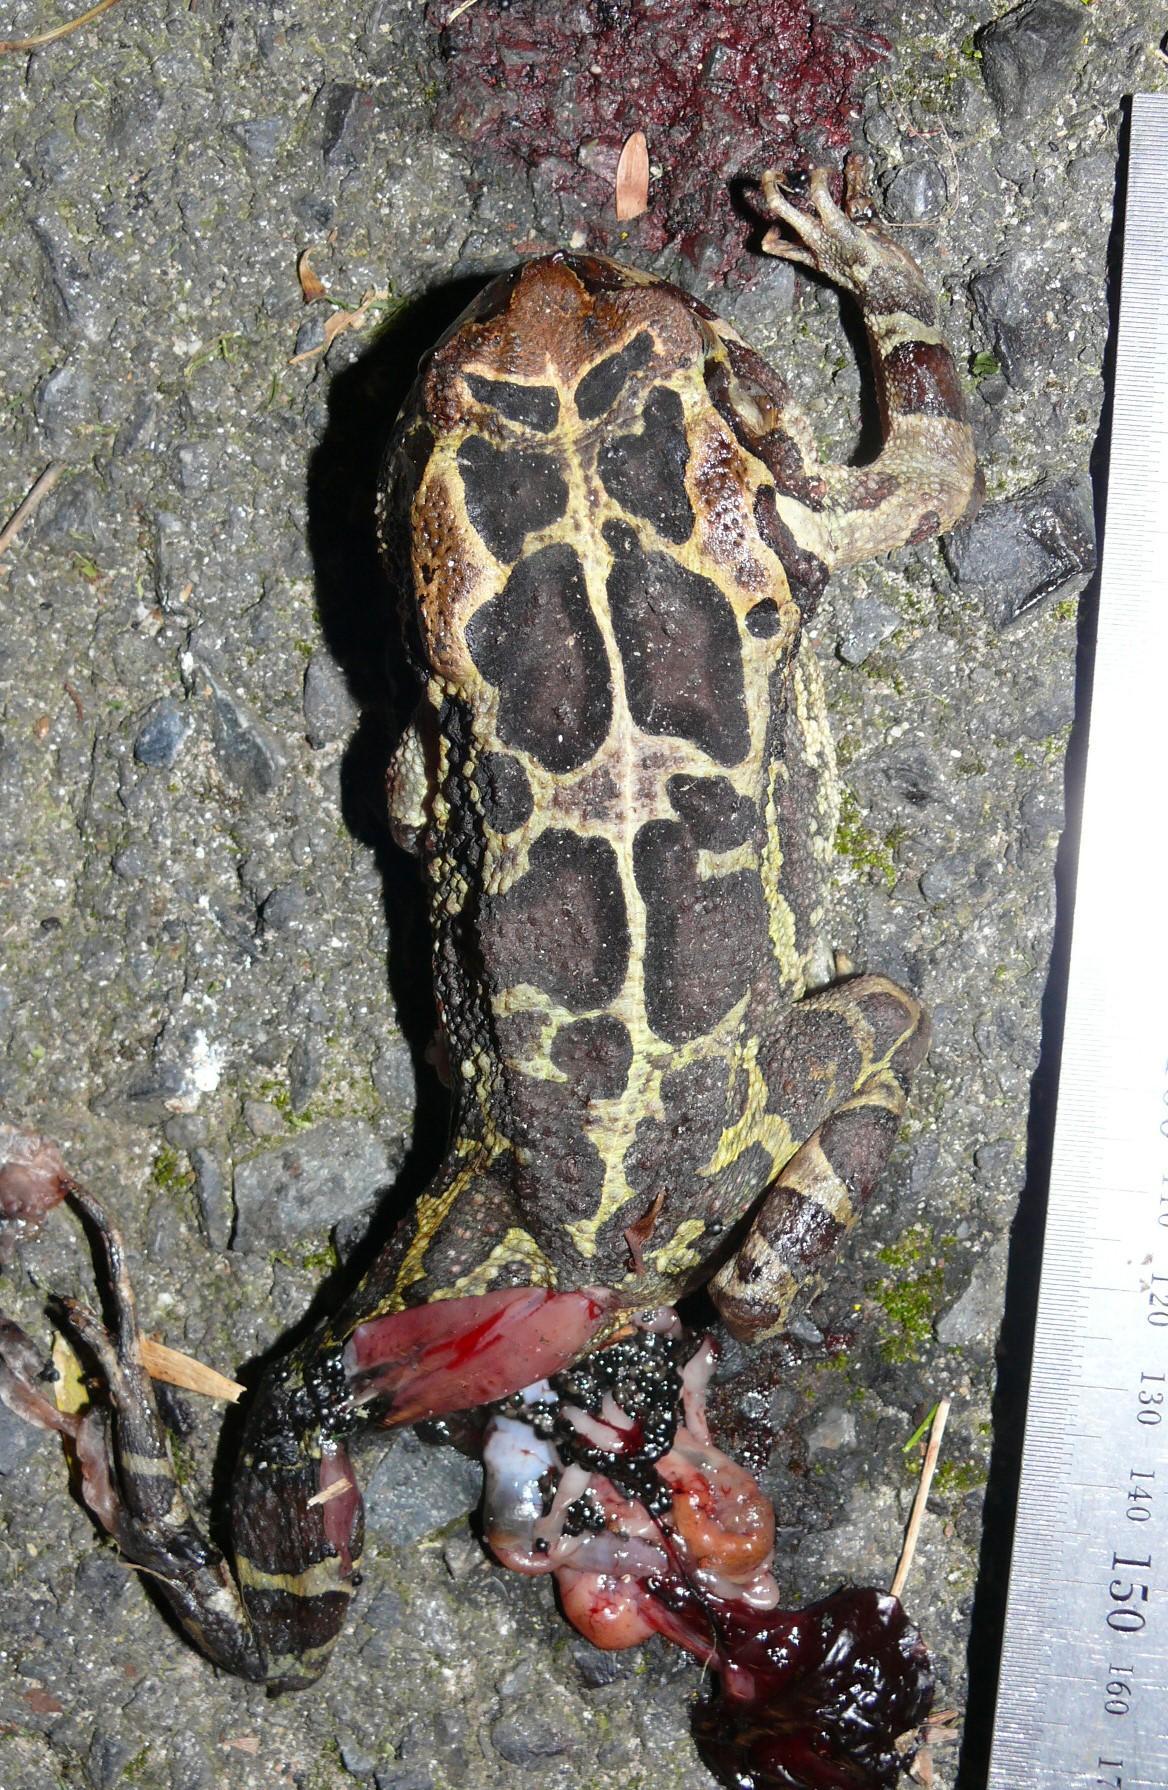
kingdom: Animalia
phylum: Chordata
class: Amphibia
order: Anura
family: Bufonidae
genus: Sclerophrys
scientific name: Sclerophrys pantherina
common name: Panther toad
